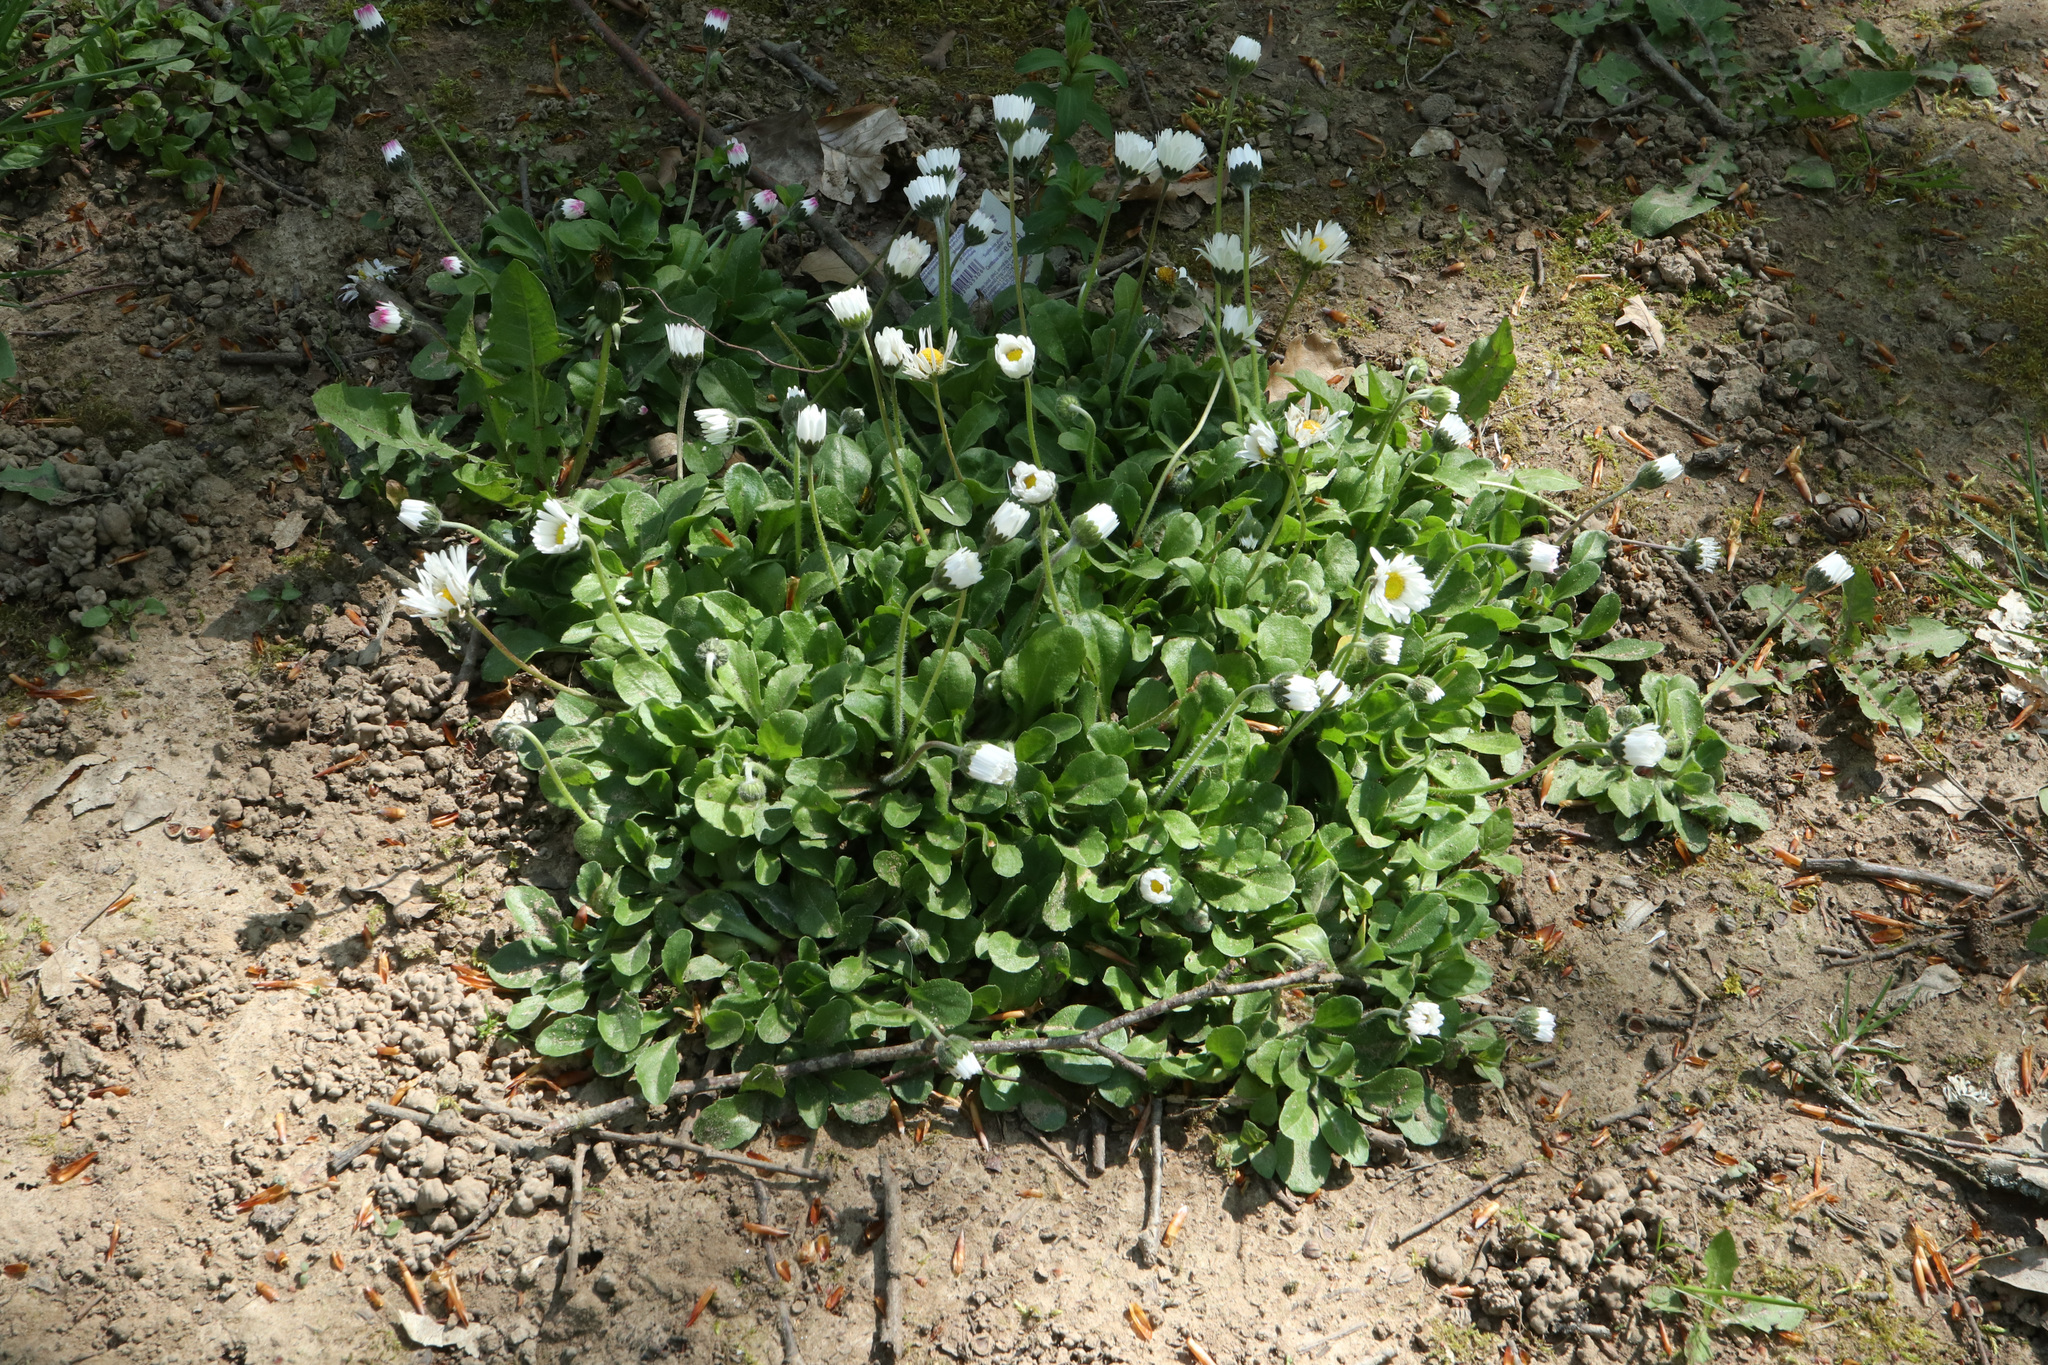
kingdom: Plantae
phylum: Tracheophyta
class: Magnoliopsida
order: Asterales
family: Asteraceae
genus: Bellis
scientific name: Bellis perennis
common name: Lawndaisy
